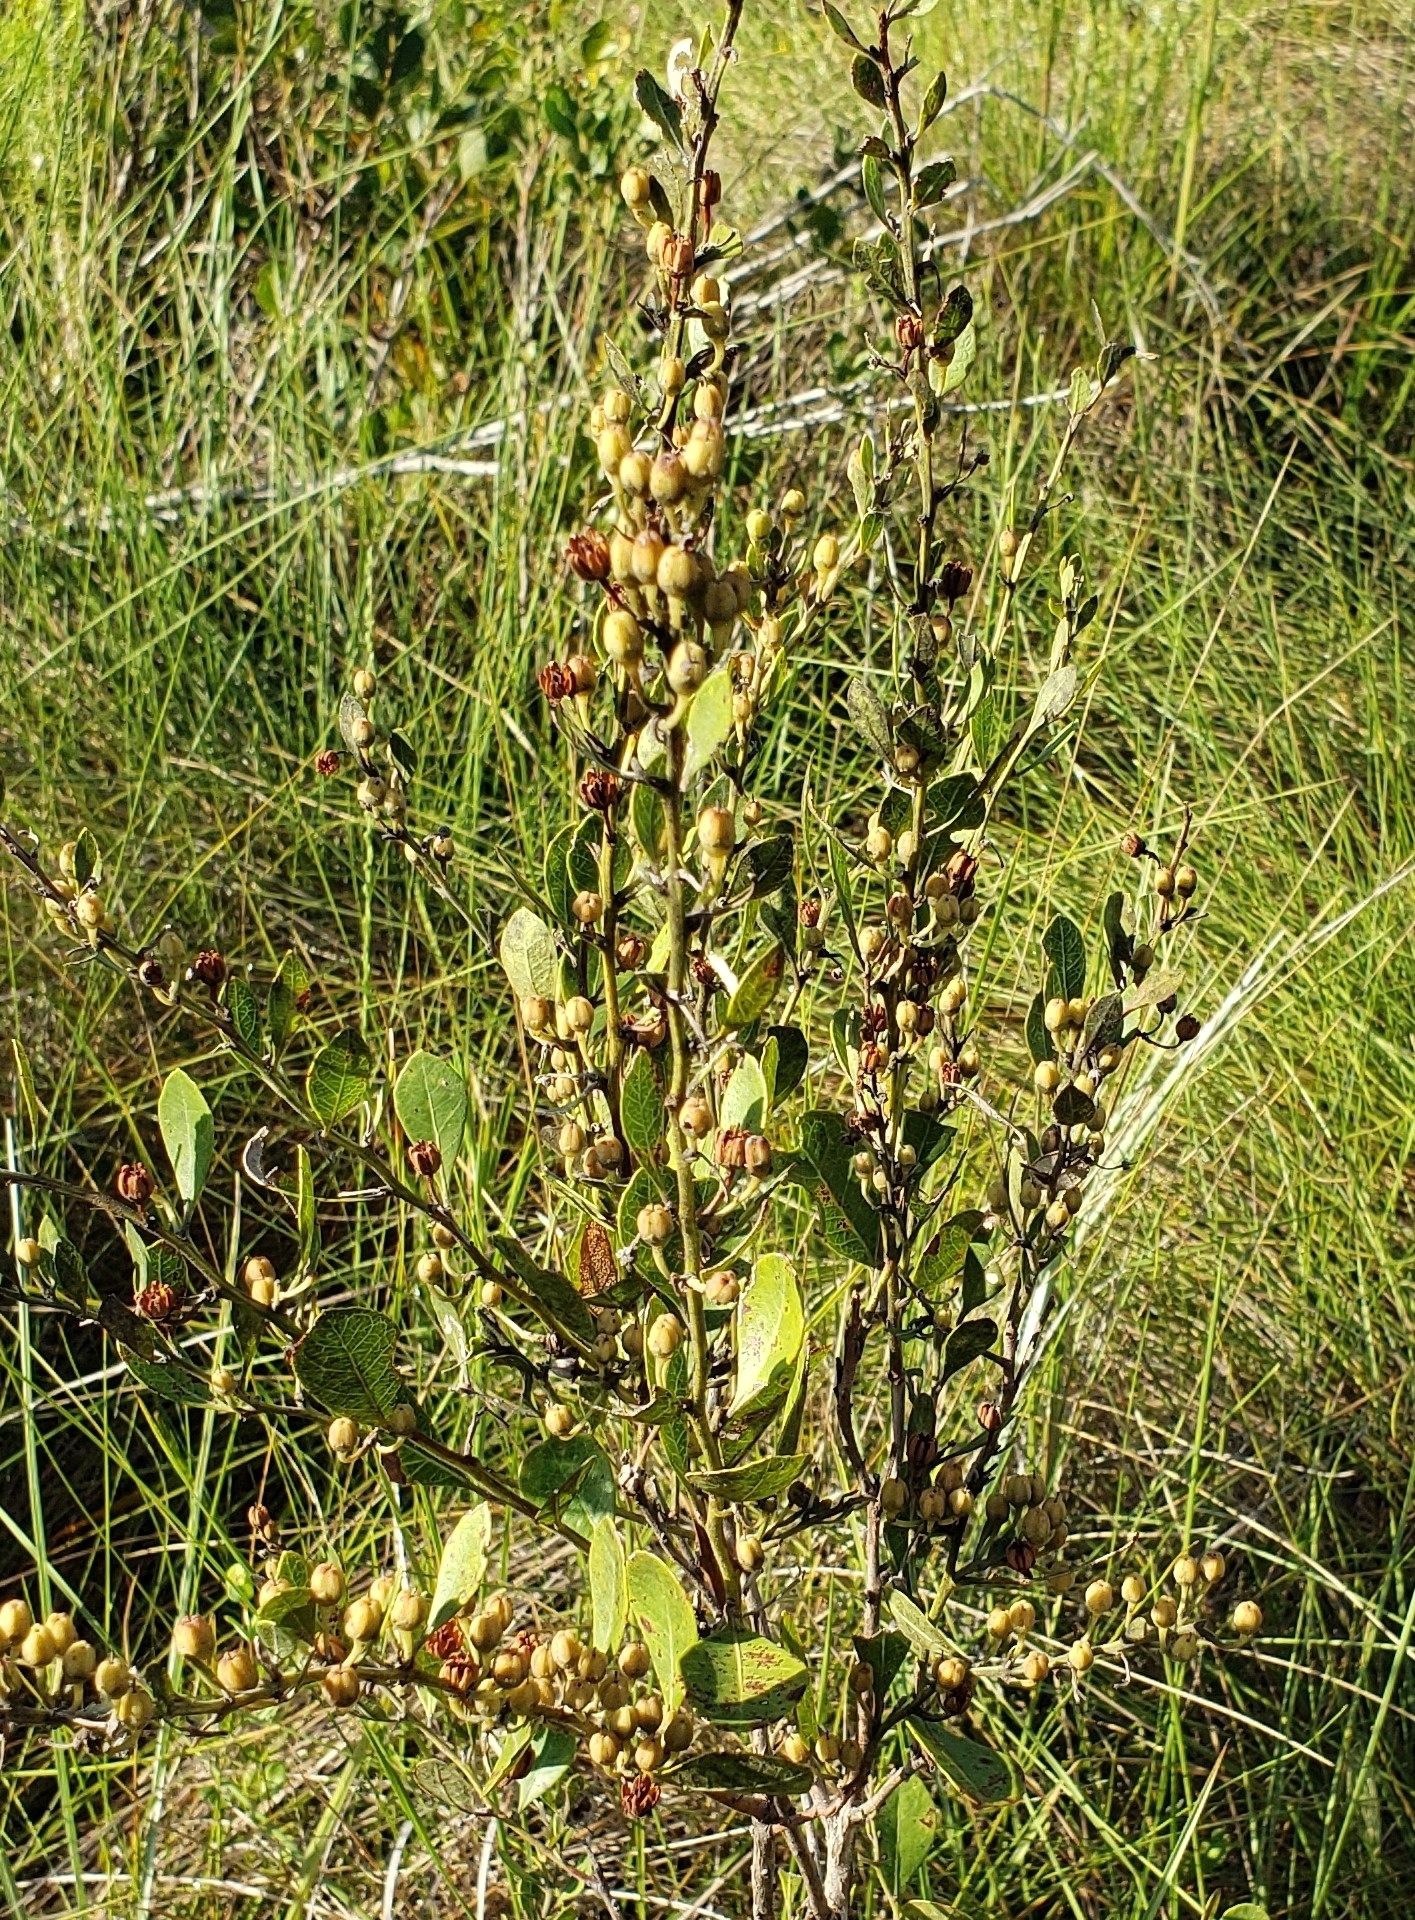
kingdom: Plantae
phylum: Tracheophyta
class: Magnoliopsida
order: Ericales
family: Ericaceae
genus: Lyonia
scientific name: Lyonia fruticosa
